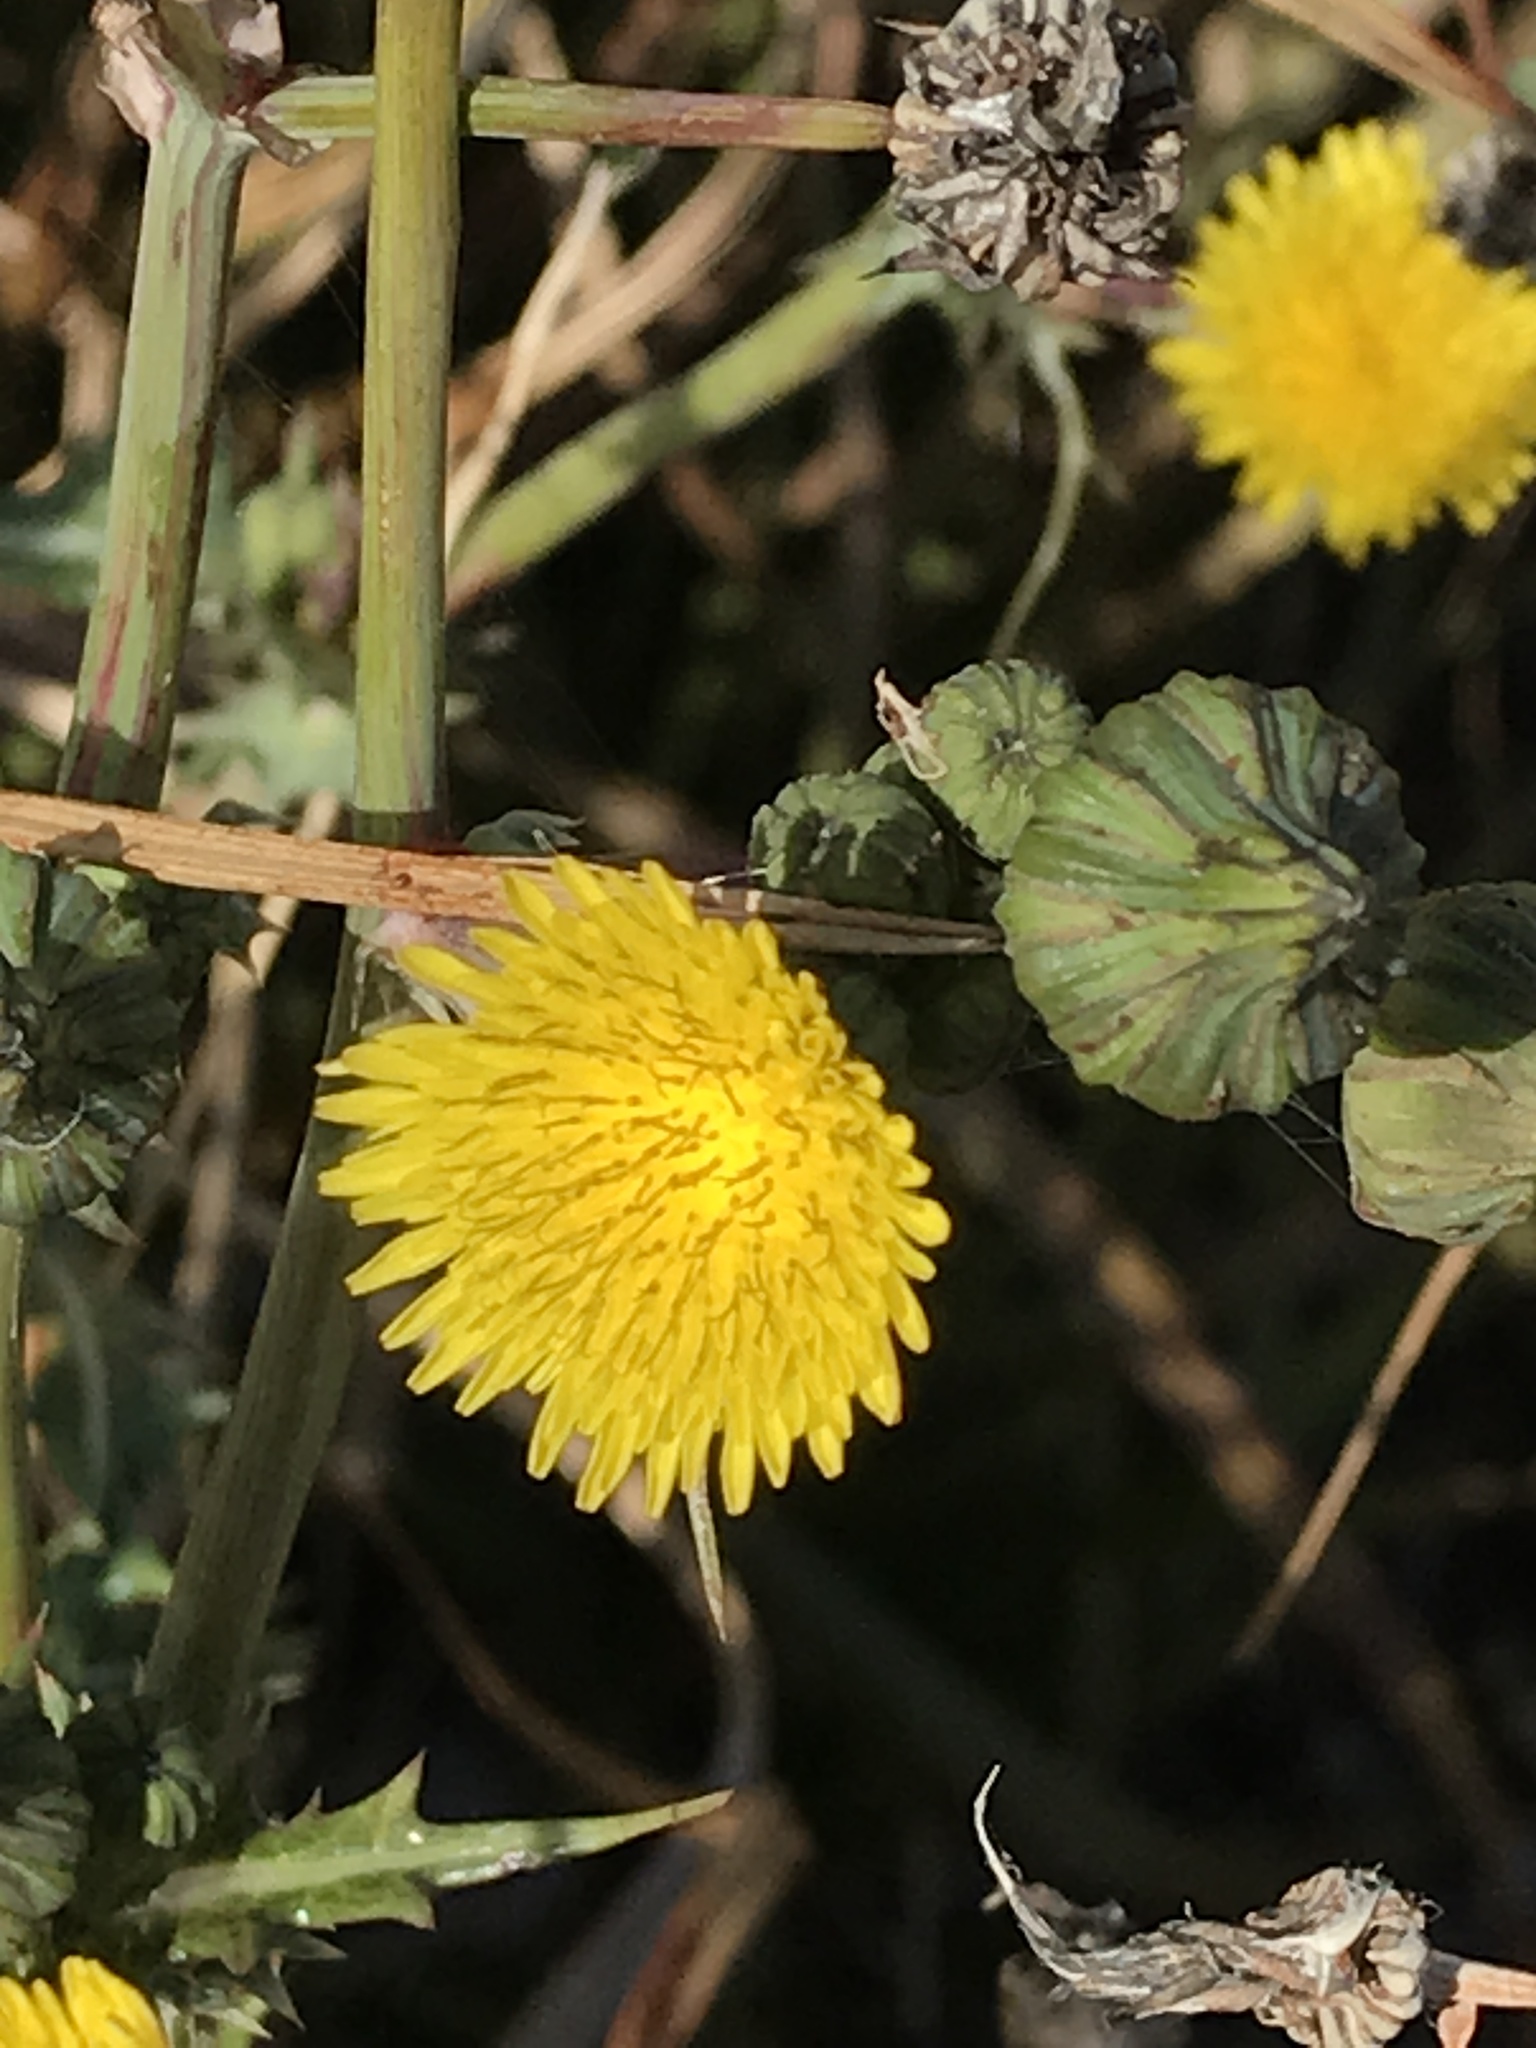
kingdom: Plantae
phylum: Tracheophyta
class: Magnoliopsida
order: Asterales
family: Asteraceae
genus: Sonchus
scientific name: Sonchus asper
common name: Prickly sow-thistle
